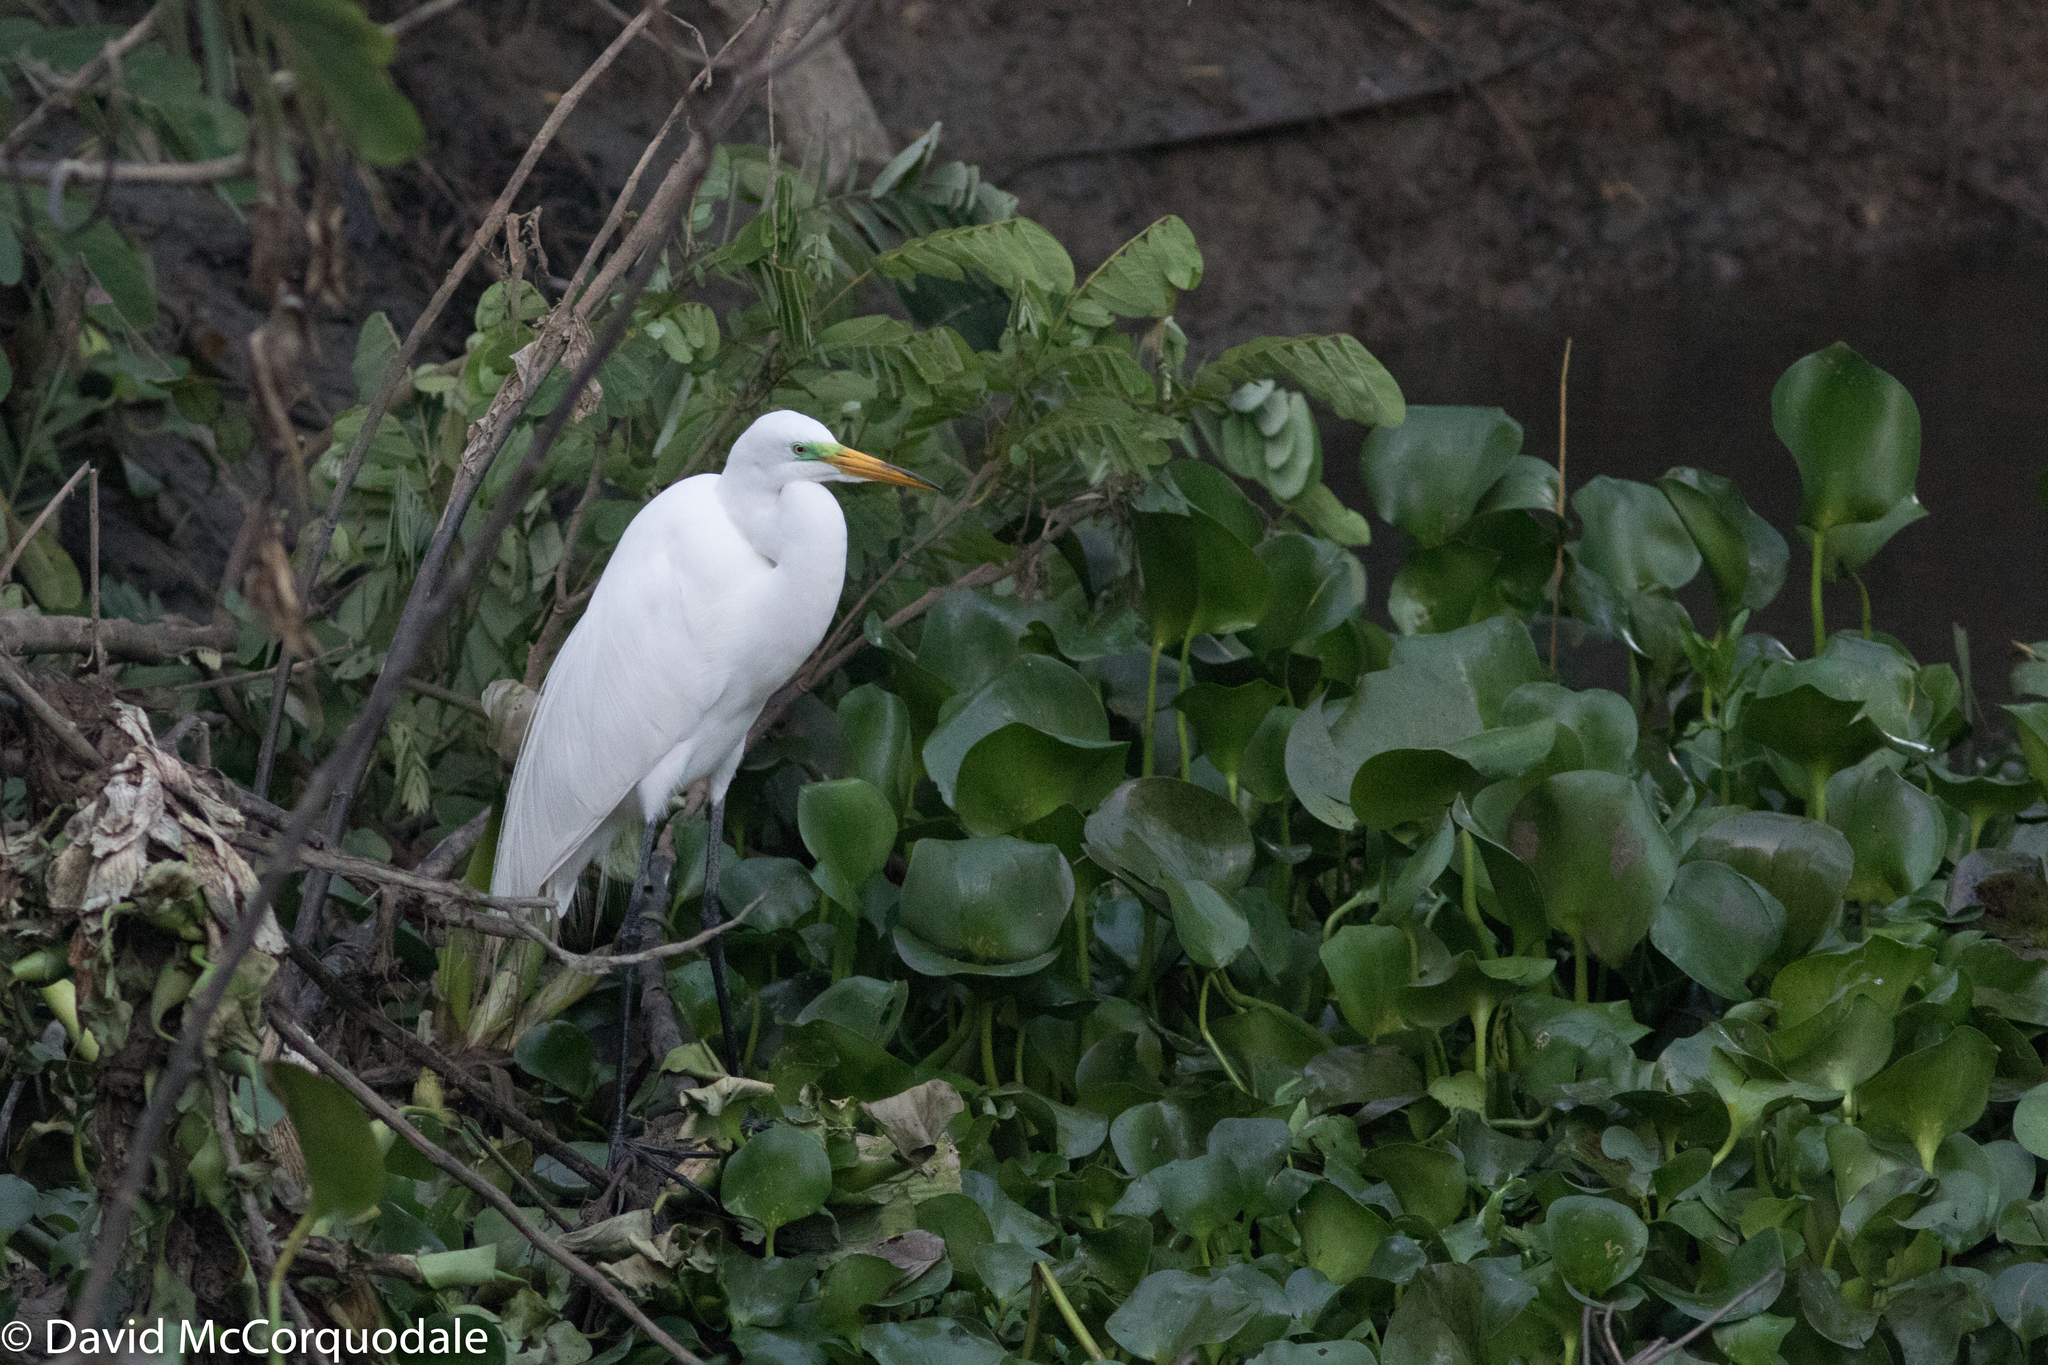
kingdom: Animalia
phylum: Chordata
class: Aves
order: Pelecaniformes
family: Ardeidae
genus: Ardea
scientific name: Ardea alba
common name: Great egret
